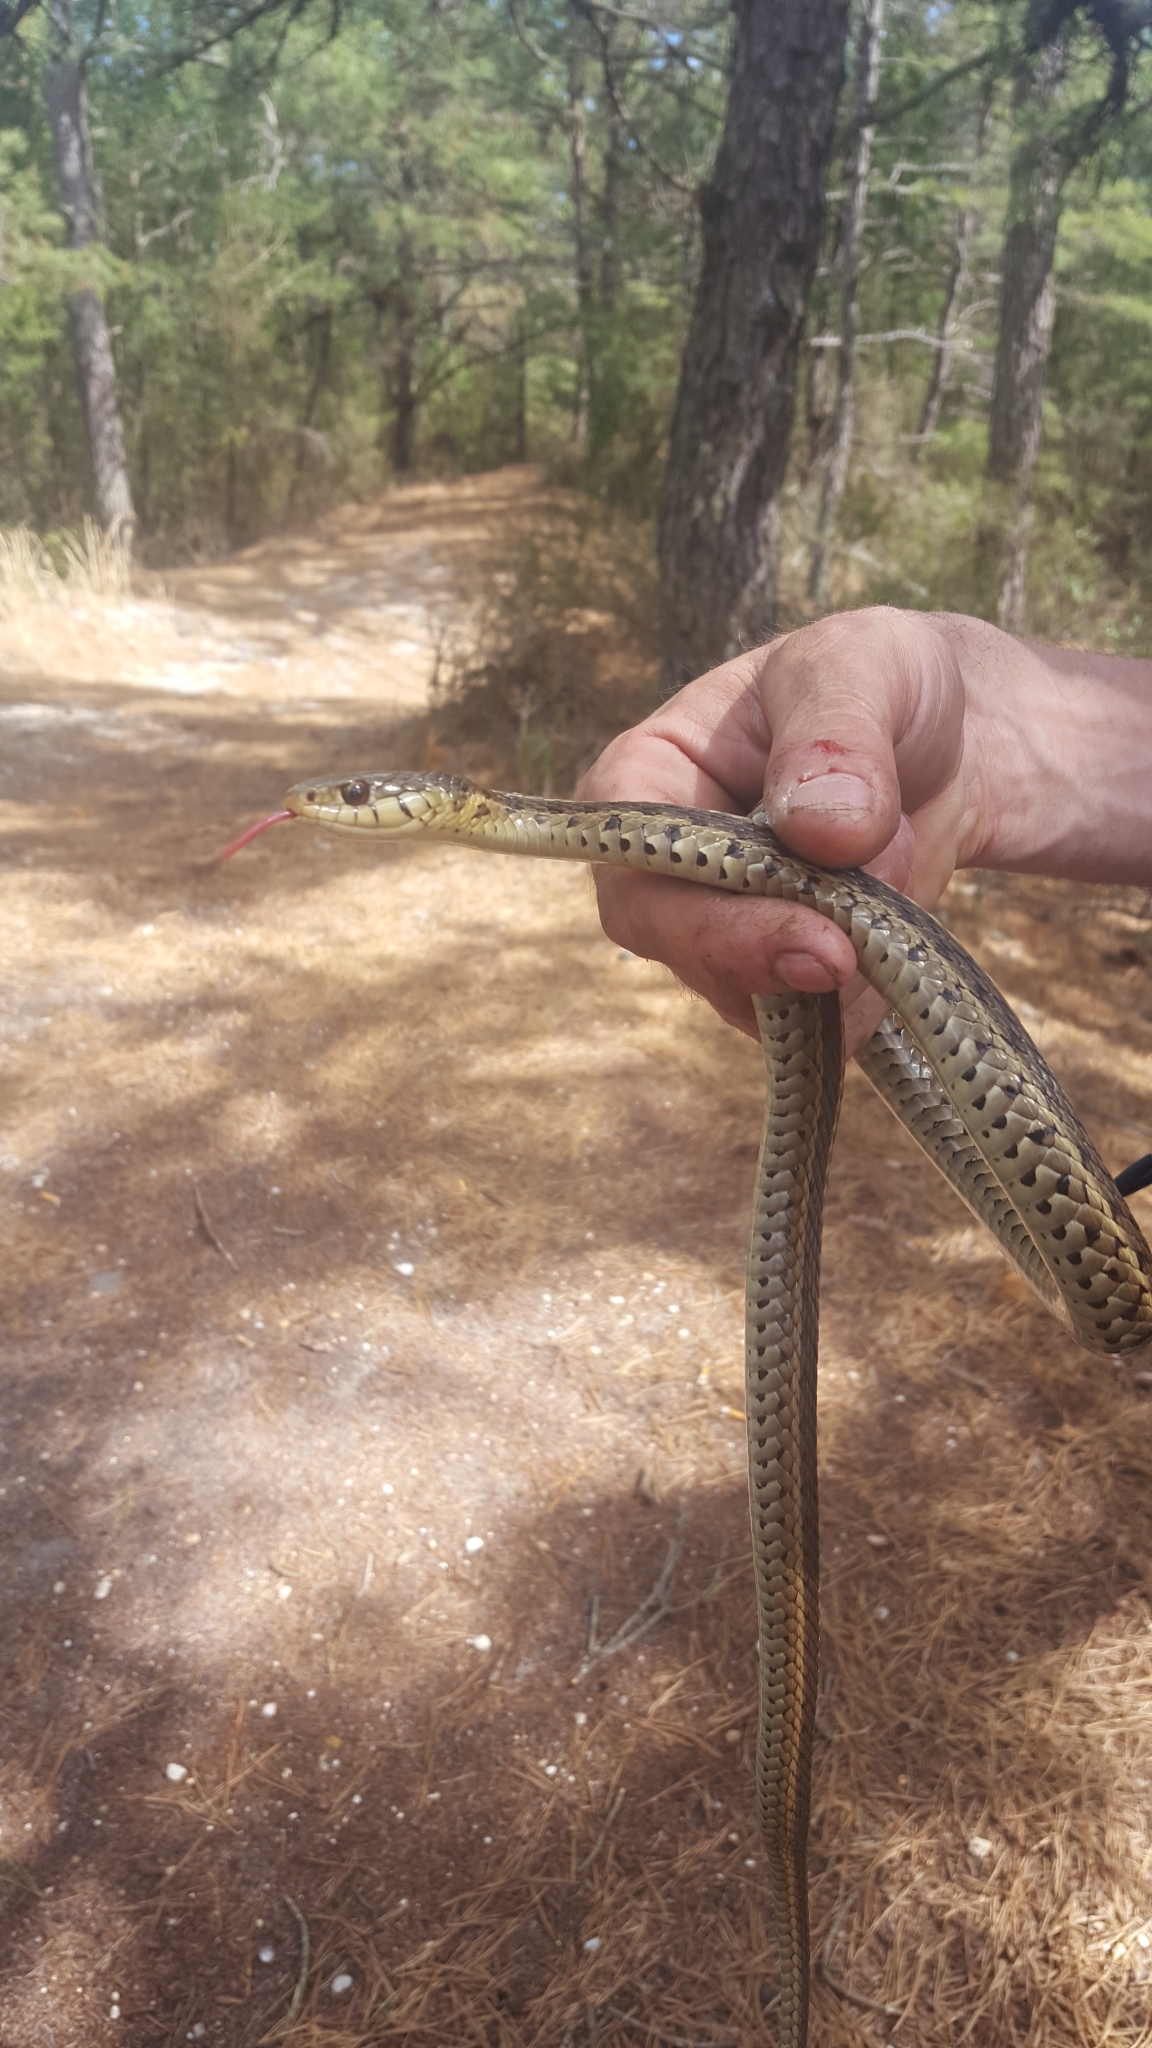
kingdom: Animalia
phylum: Chordata
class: Squamata
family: Colubridae
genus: Thamnophis
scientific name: Thamnophis sirtalis
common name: Common garter snake
